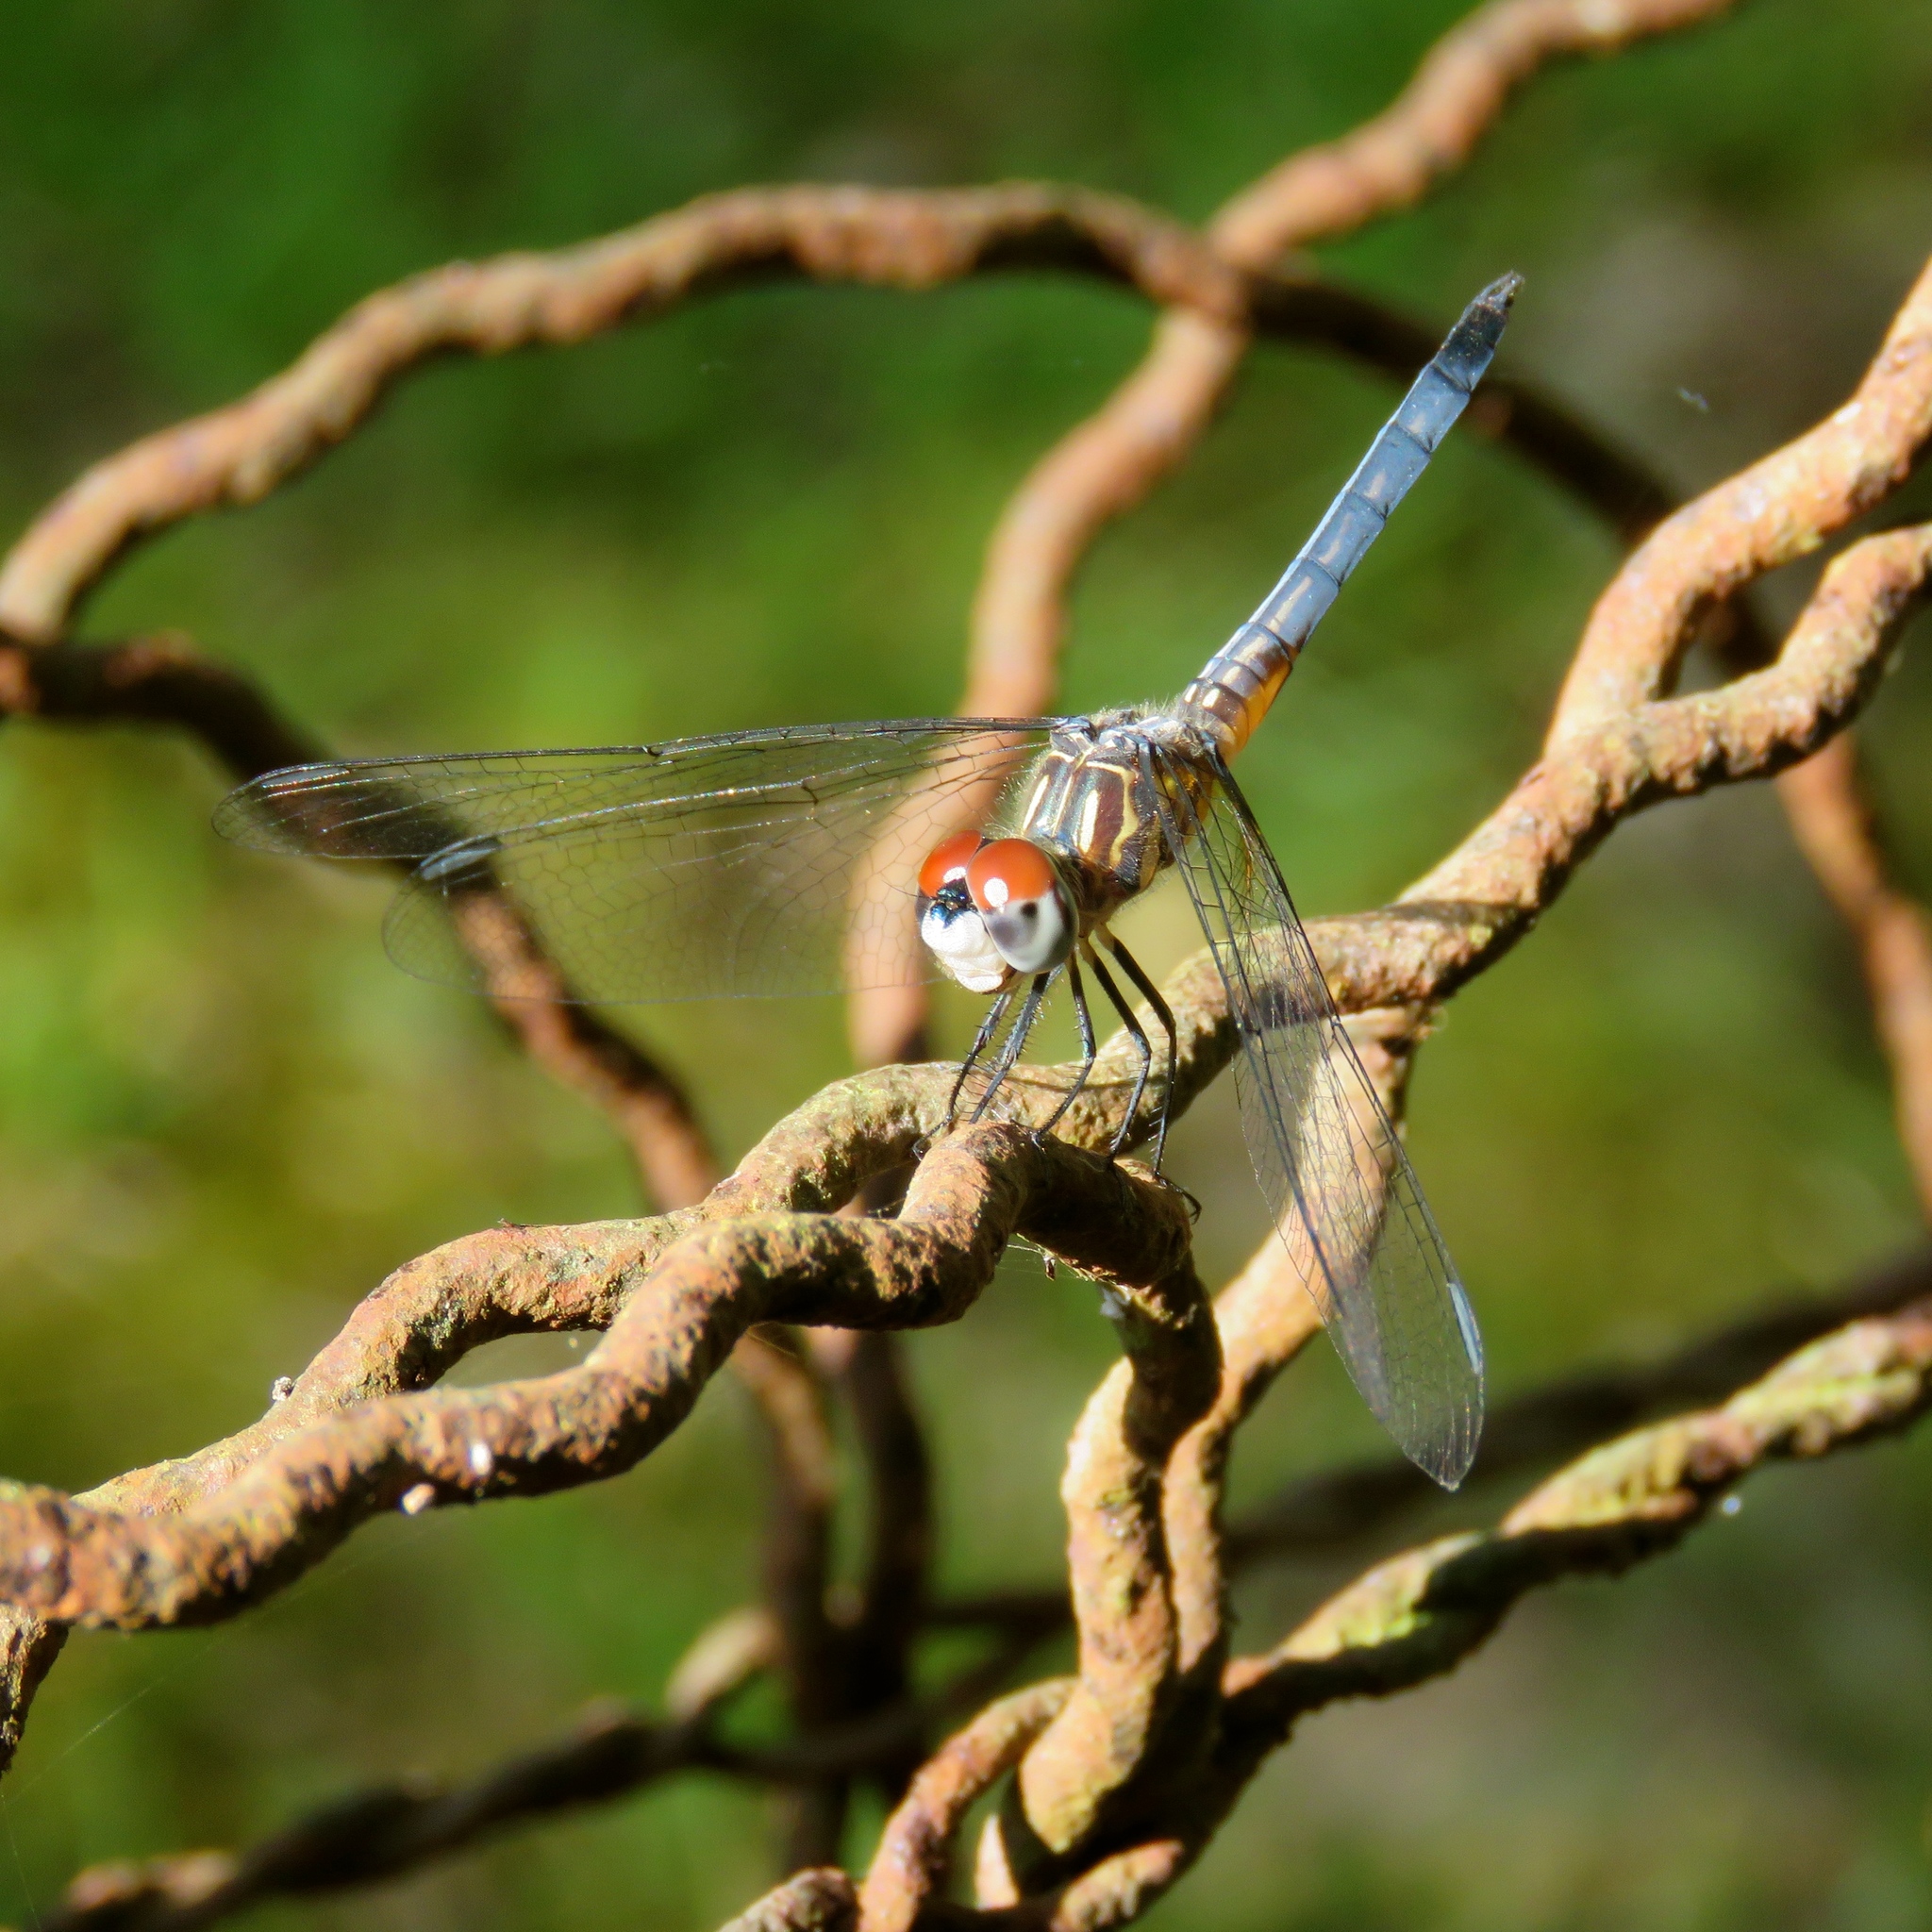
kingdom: Animalia
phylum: Arthropoda
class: Insecta
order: Odonata
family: Libellulidae
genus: Pachydiplax
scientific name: Pachydiplax longipennis
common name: Blue dasher
